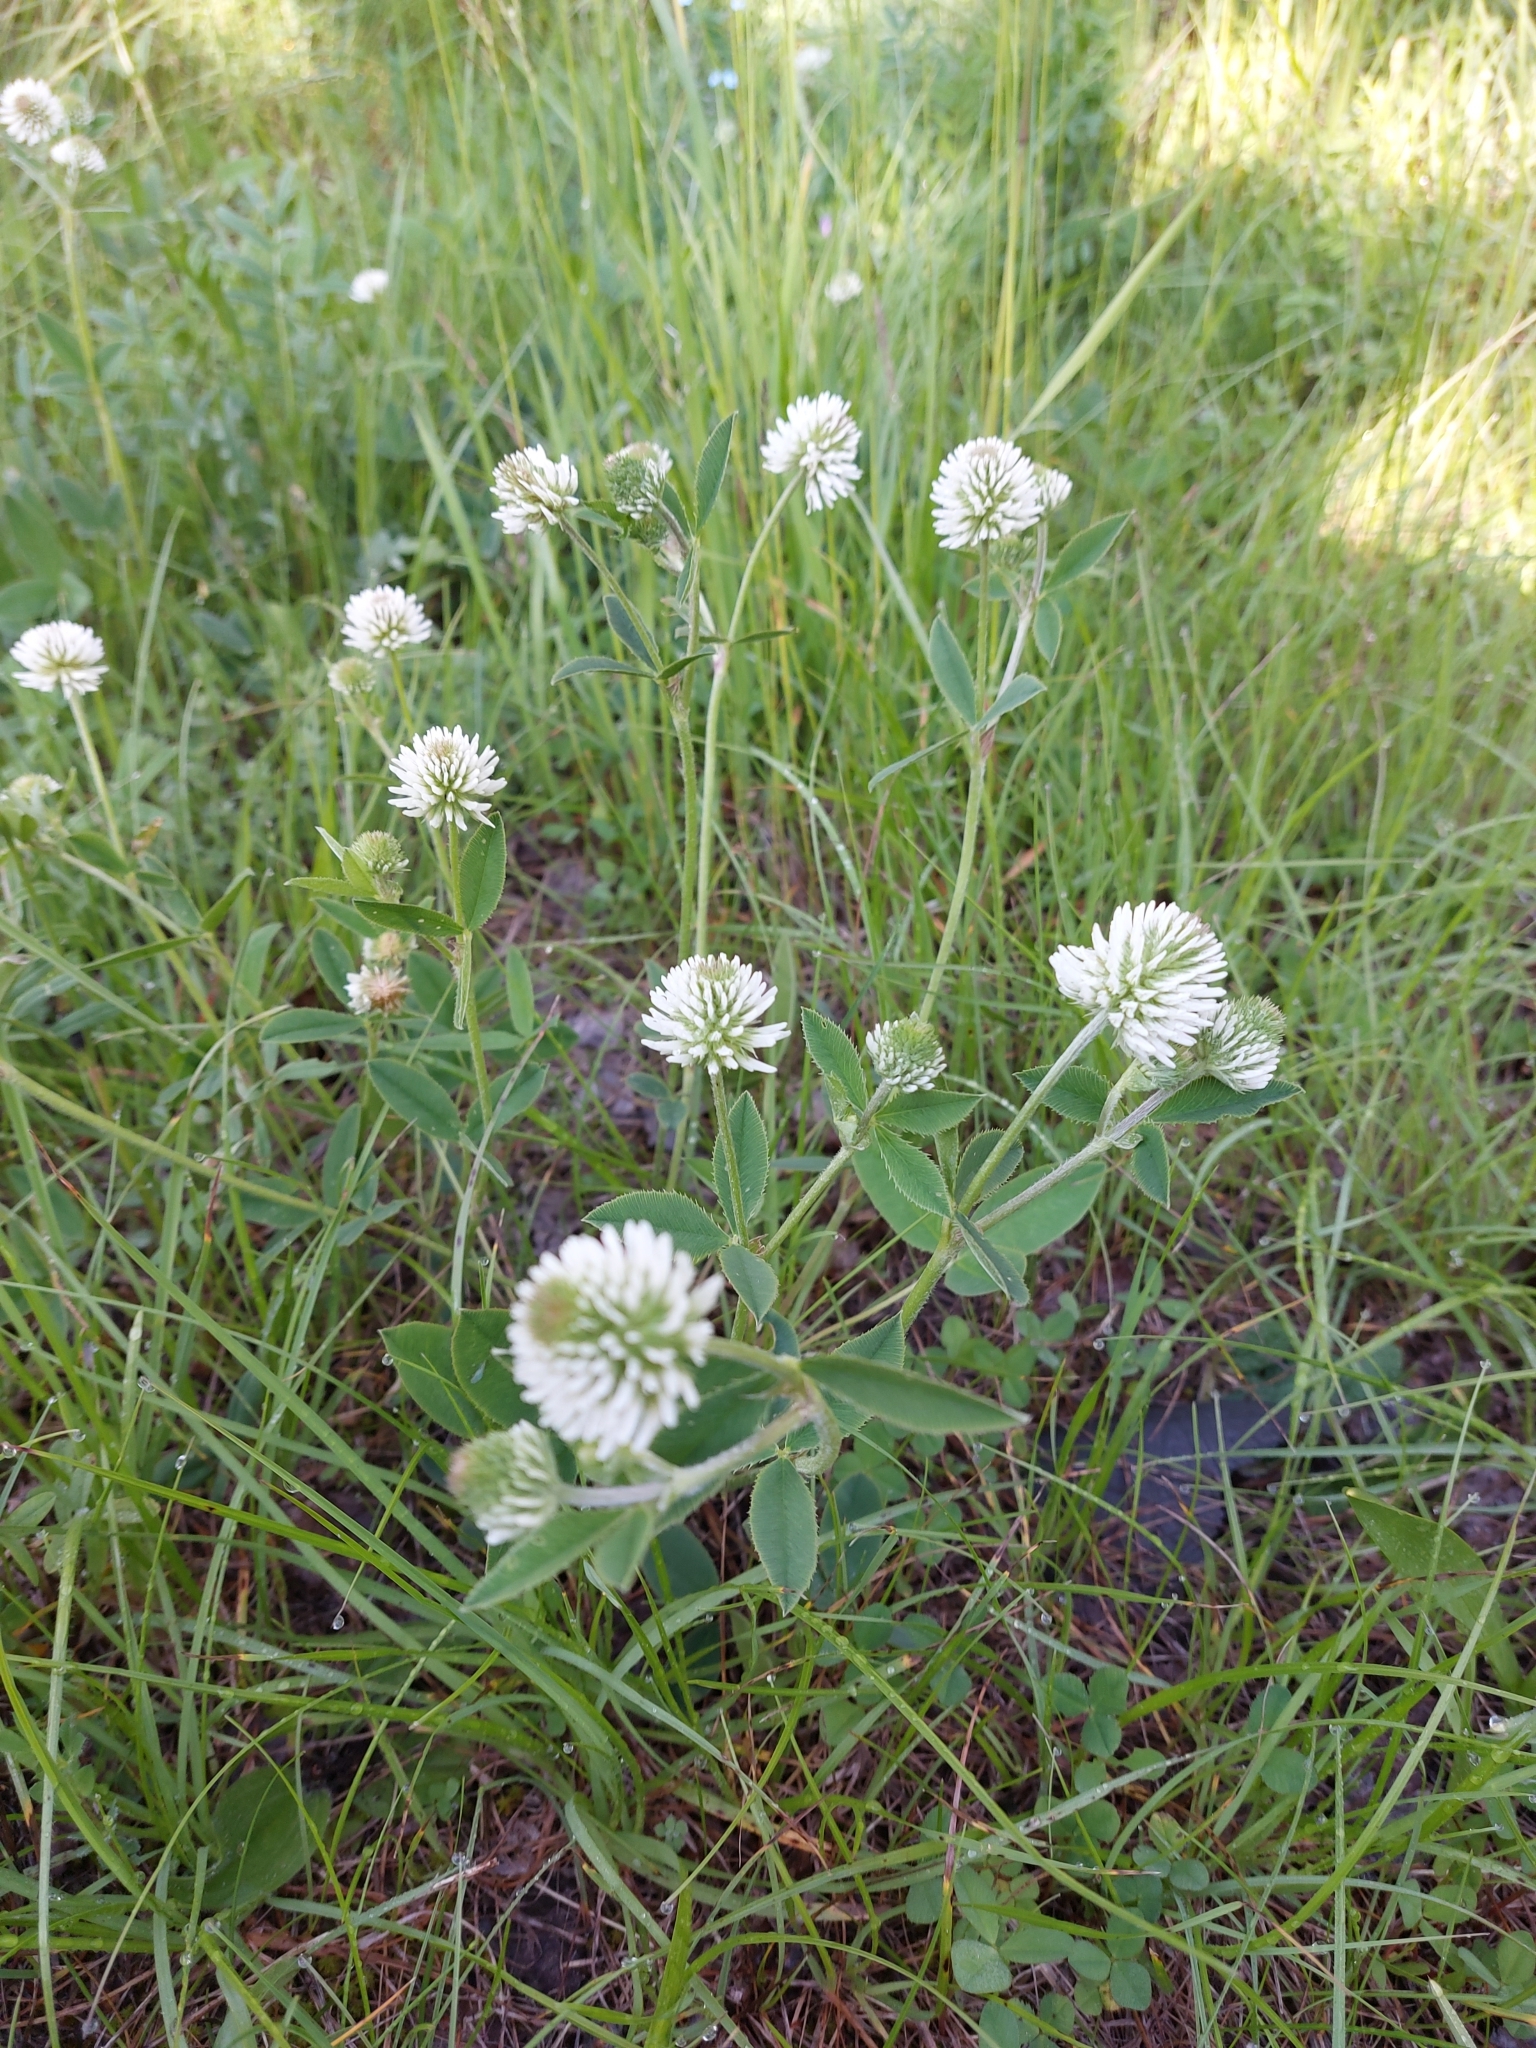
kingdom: Plantae
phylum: Tracheophyta
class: Magnoliopsida
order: Fabales
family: Fabaceae
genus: Trifolium
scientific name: Trifolium montanum
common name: Mountain clover
